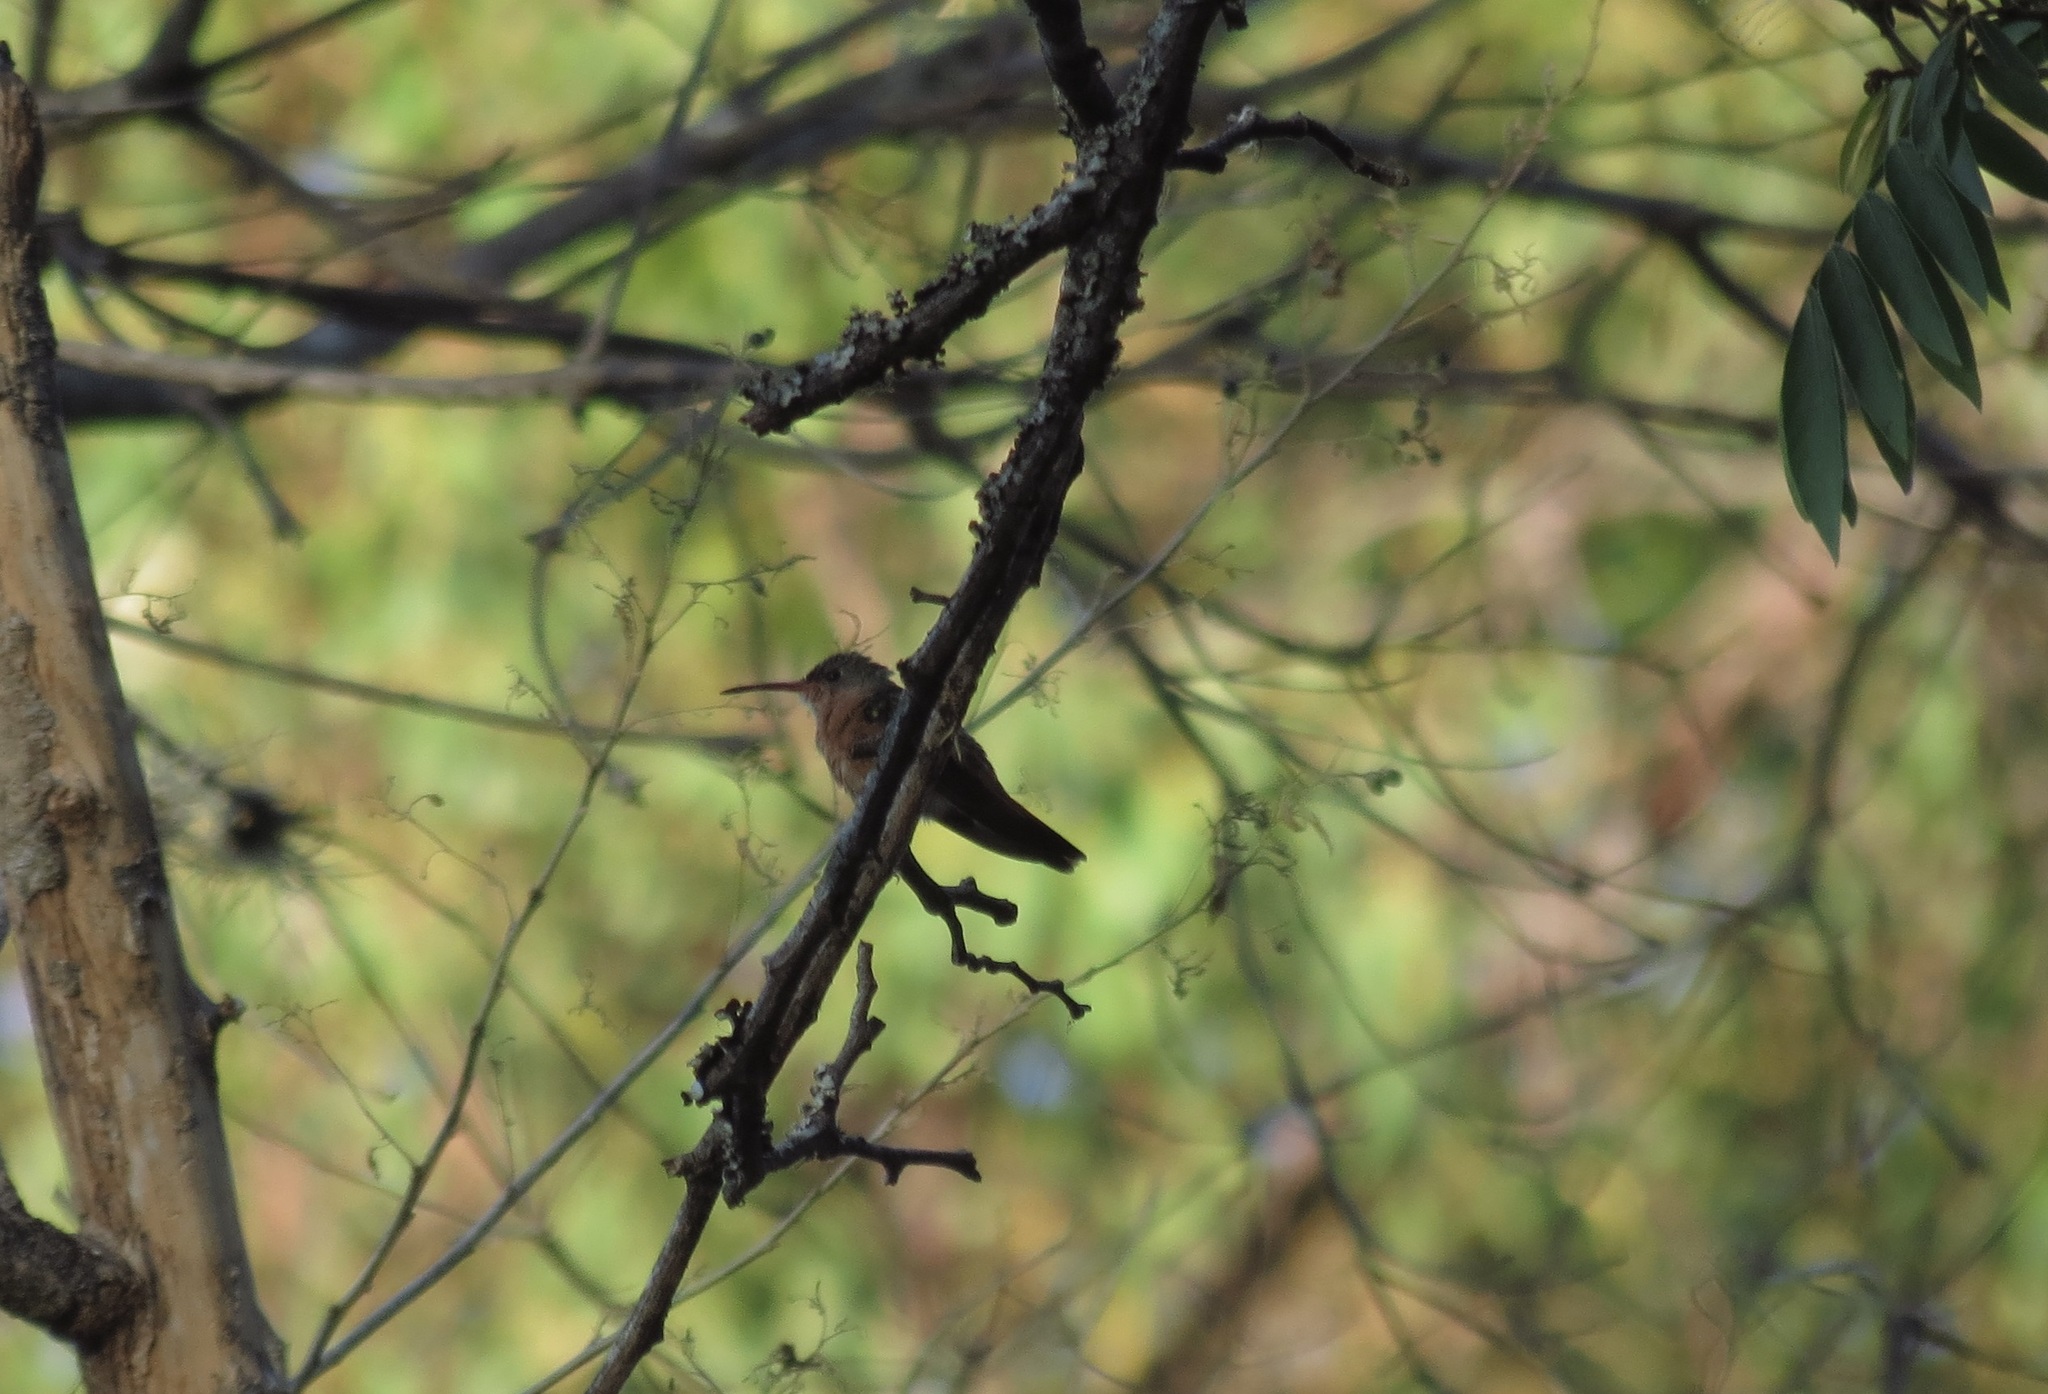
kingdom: Animalia
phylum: Chordata
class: Aves
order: Apodiformes
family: Trochilidae
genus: Amazilia
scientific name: Amazilia rutila
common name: Cinnamon hummingbird
